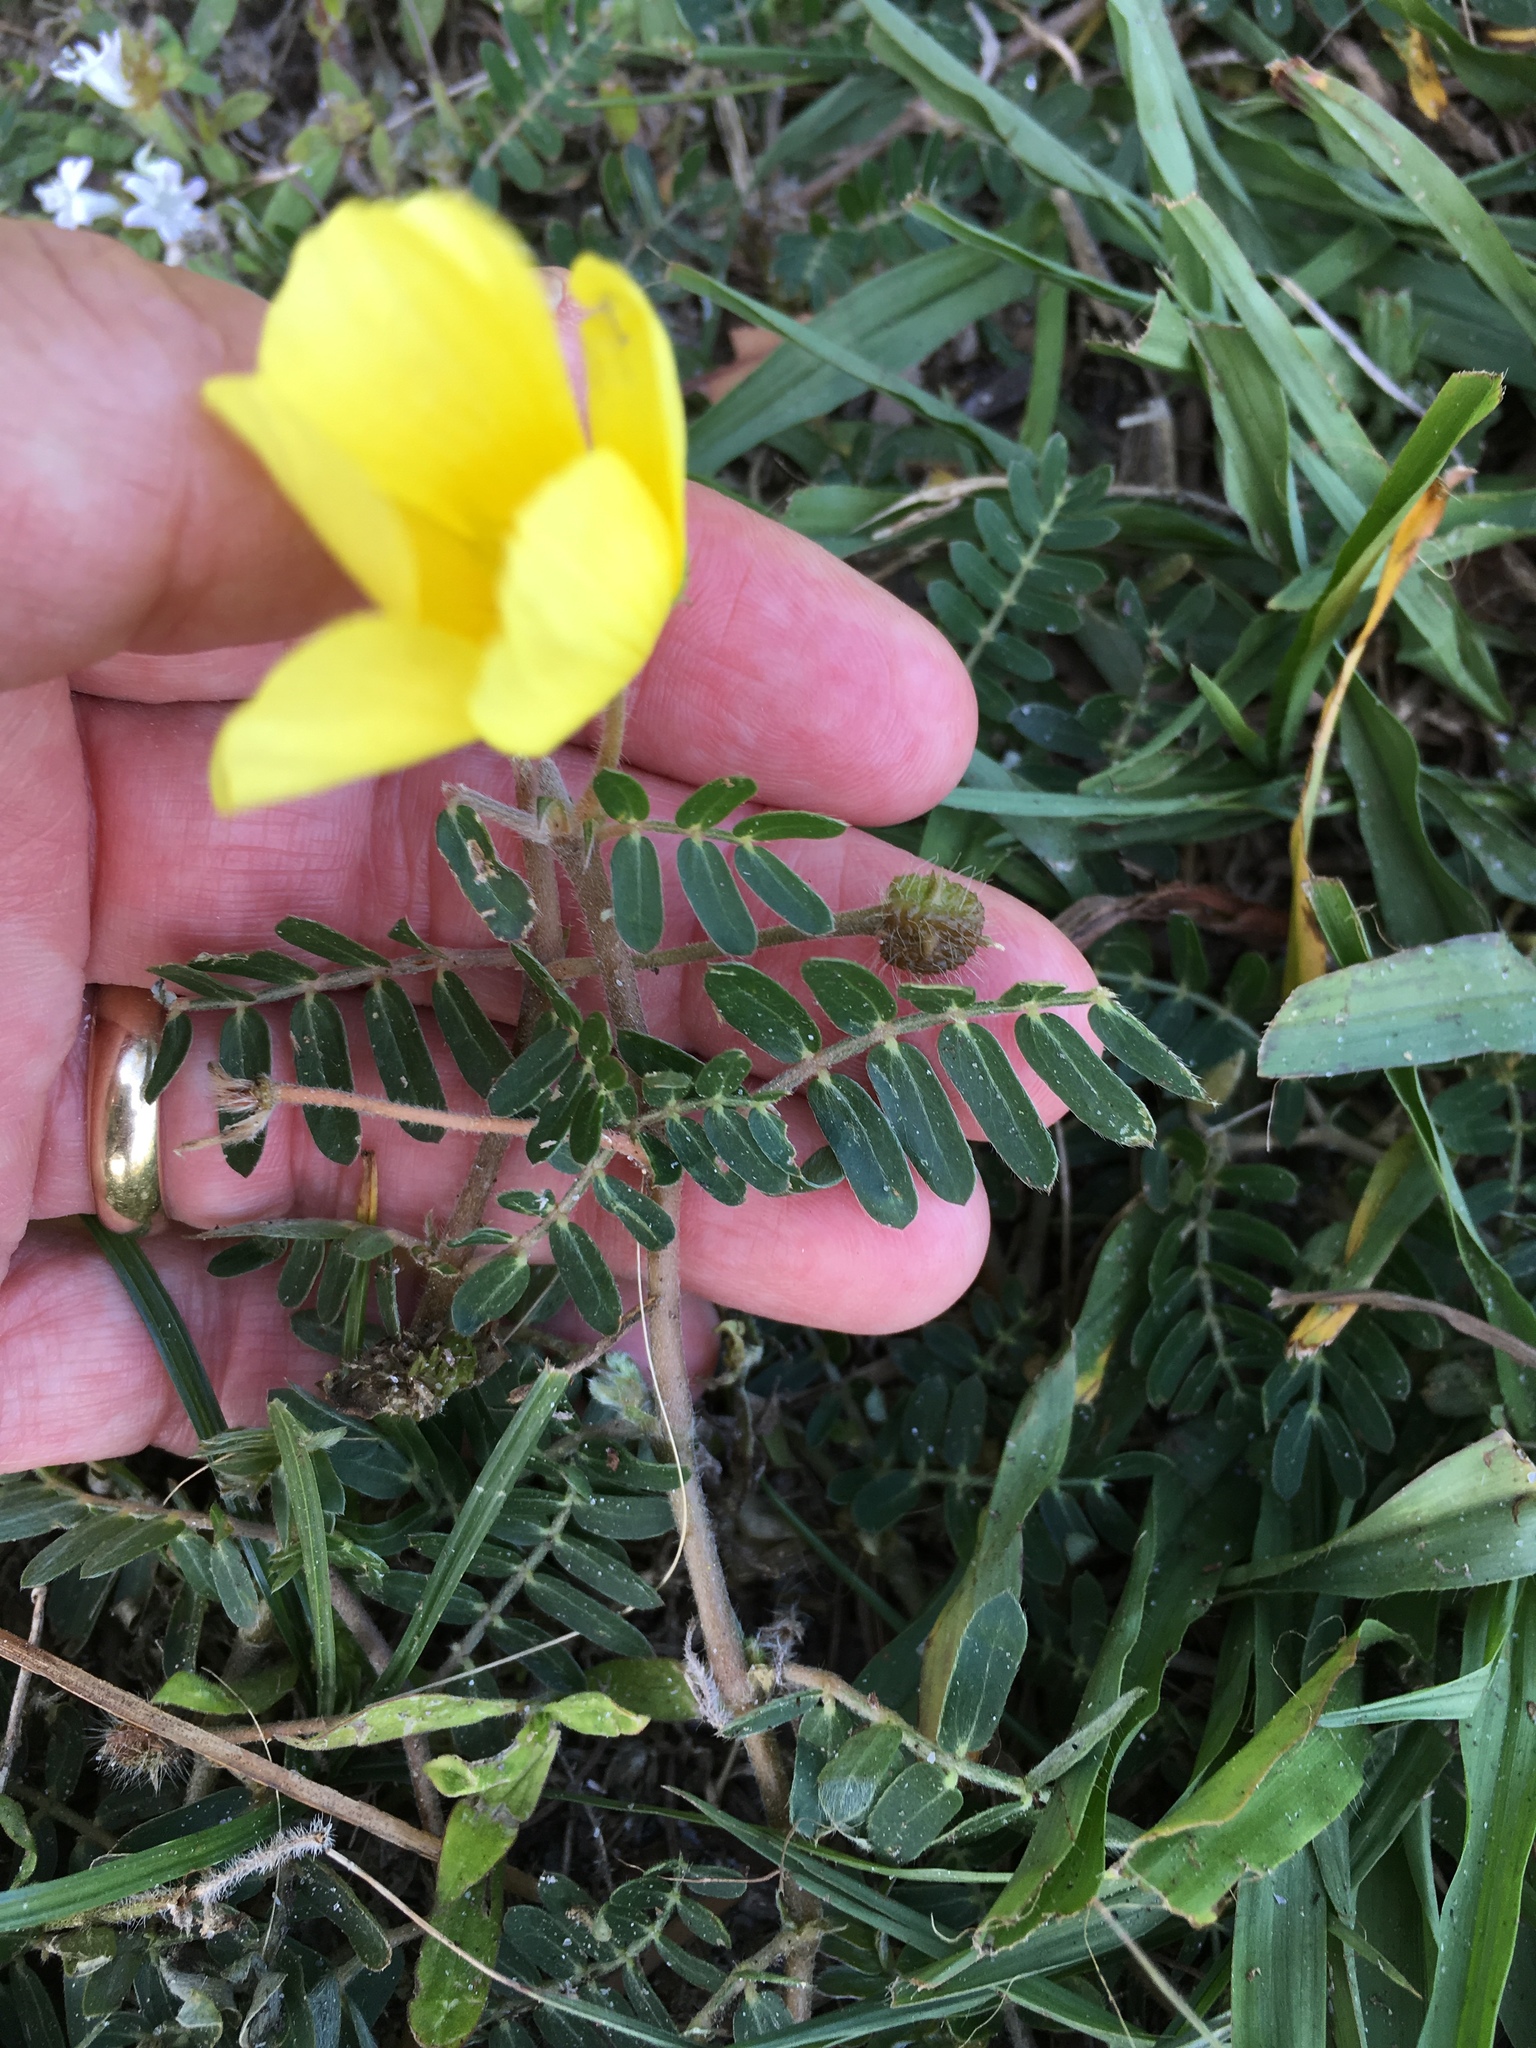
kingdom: Plantae
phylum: Tracheophyta
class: Magnoliopsida
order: Zygophyllales
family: Zygophyllaceae
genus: Tribulus
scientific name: Tribulus cistoides
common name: Jamaican feverplant
